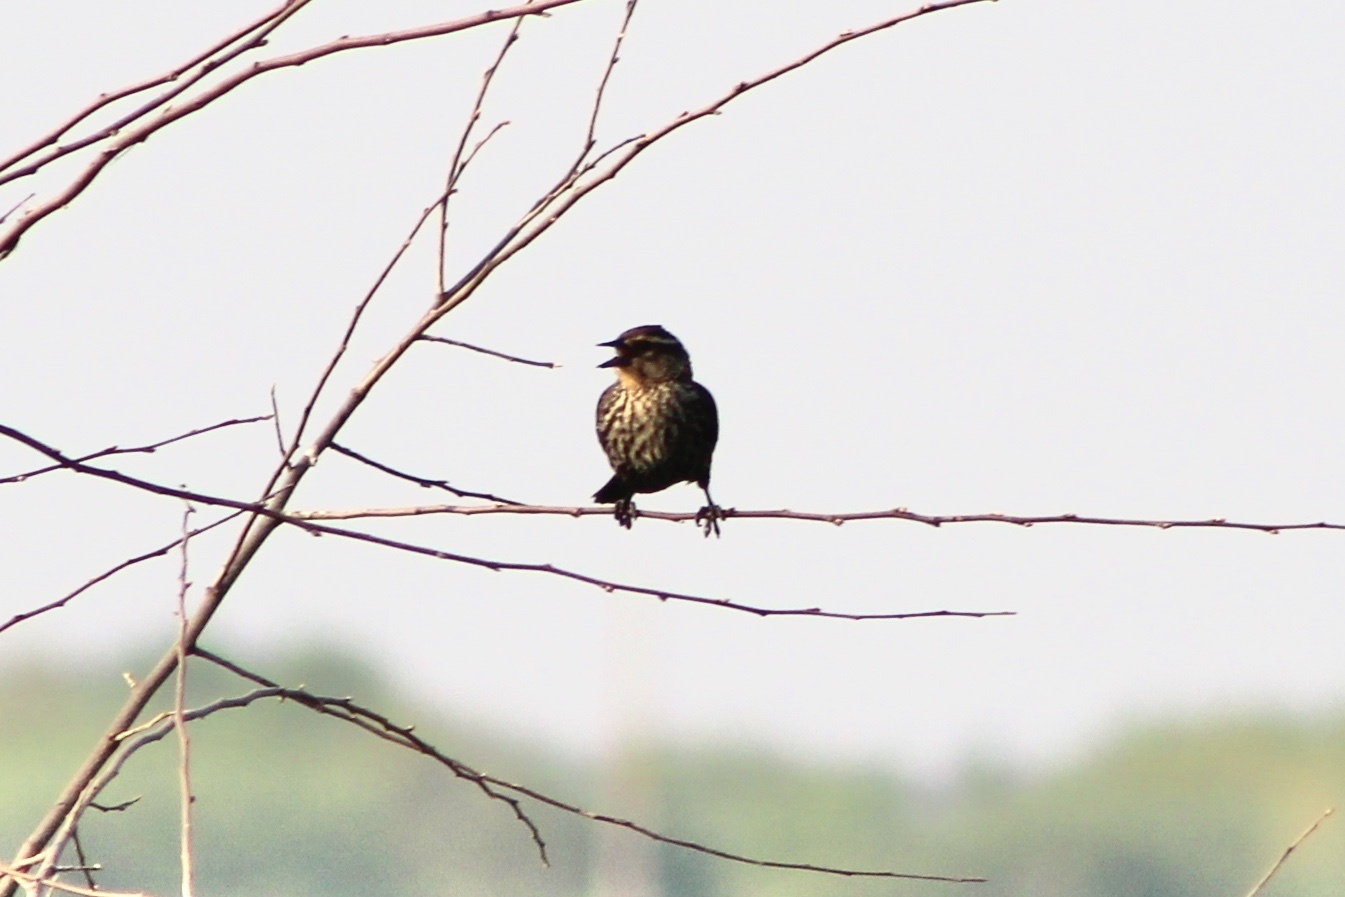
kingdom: Animalia
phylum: Chordata
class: Aves
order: Passeriformes
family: Icteridae
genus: Agelaius
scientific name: Agelaius phoeniceus
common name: Red-winged blackbird
